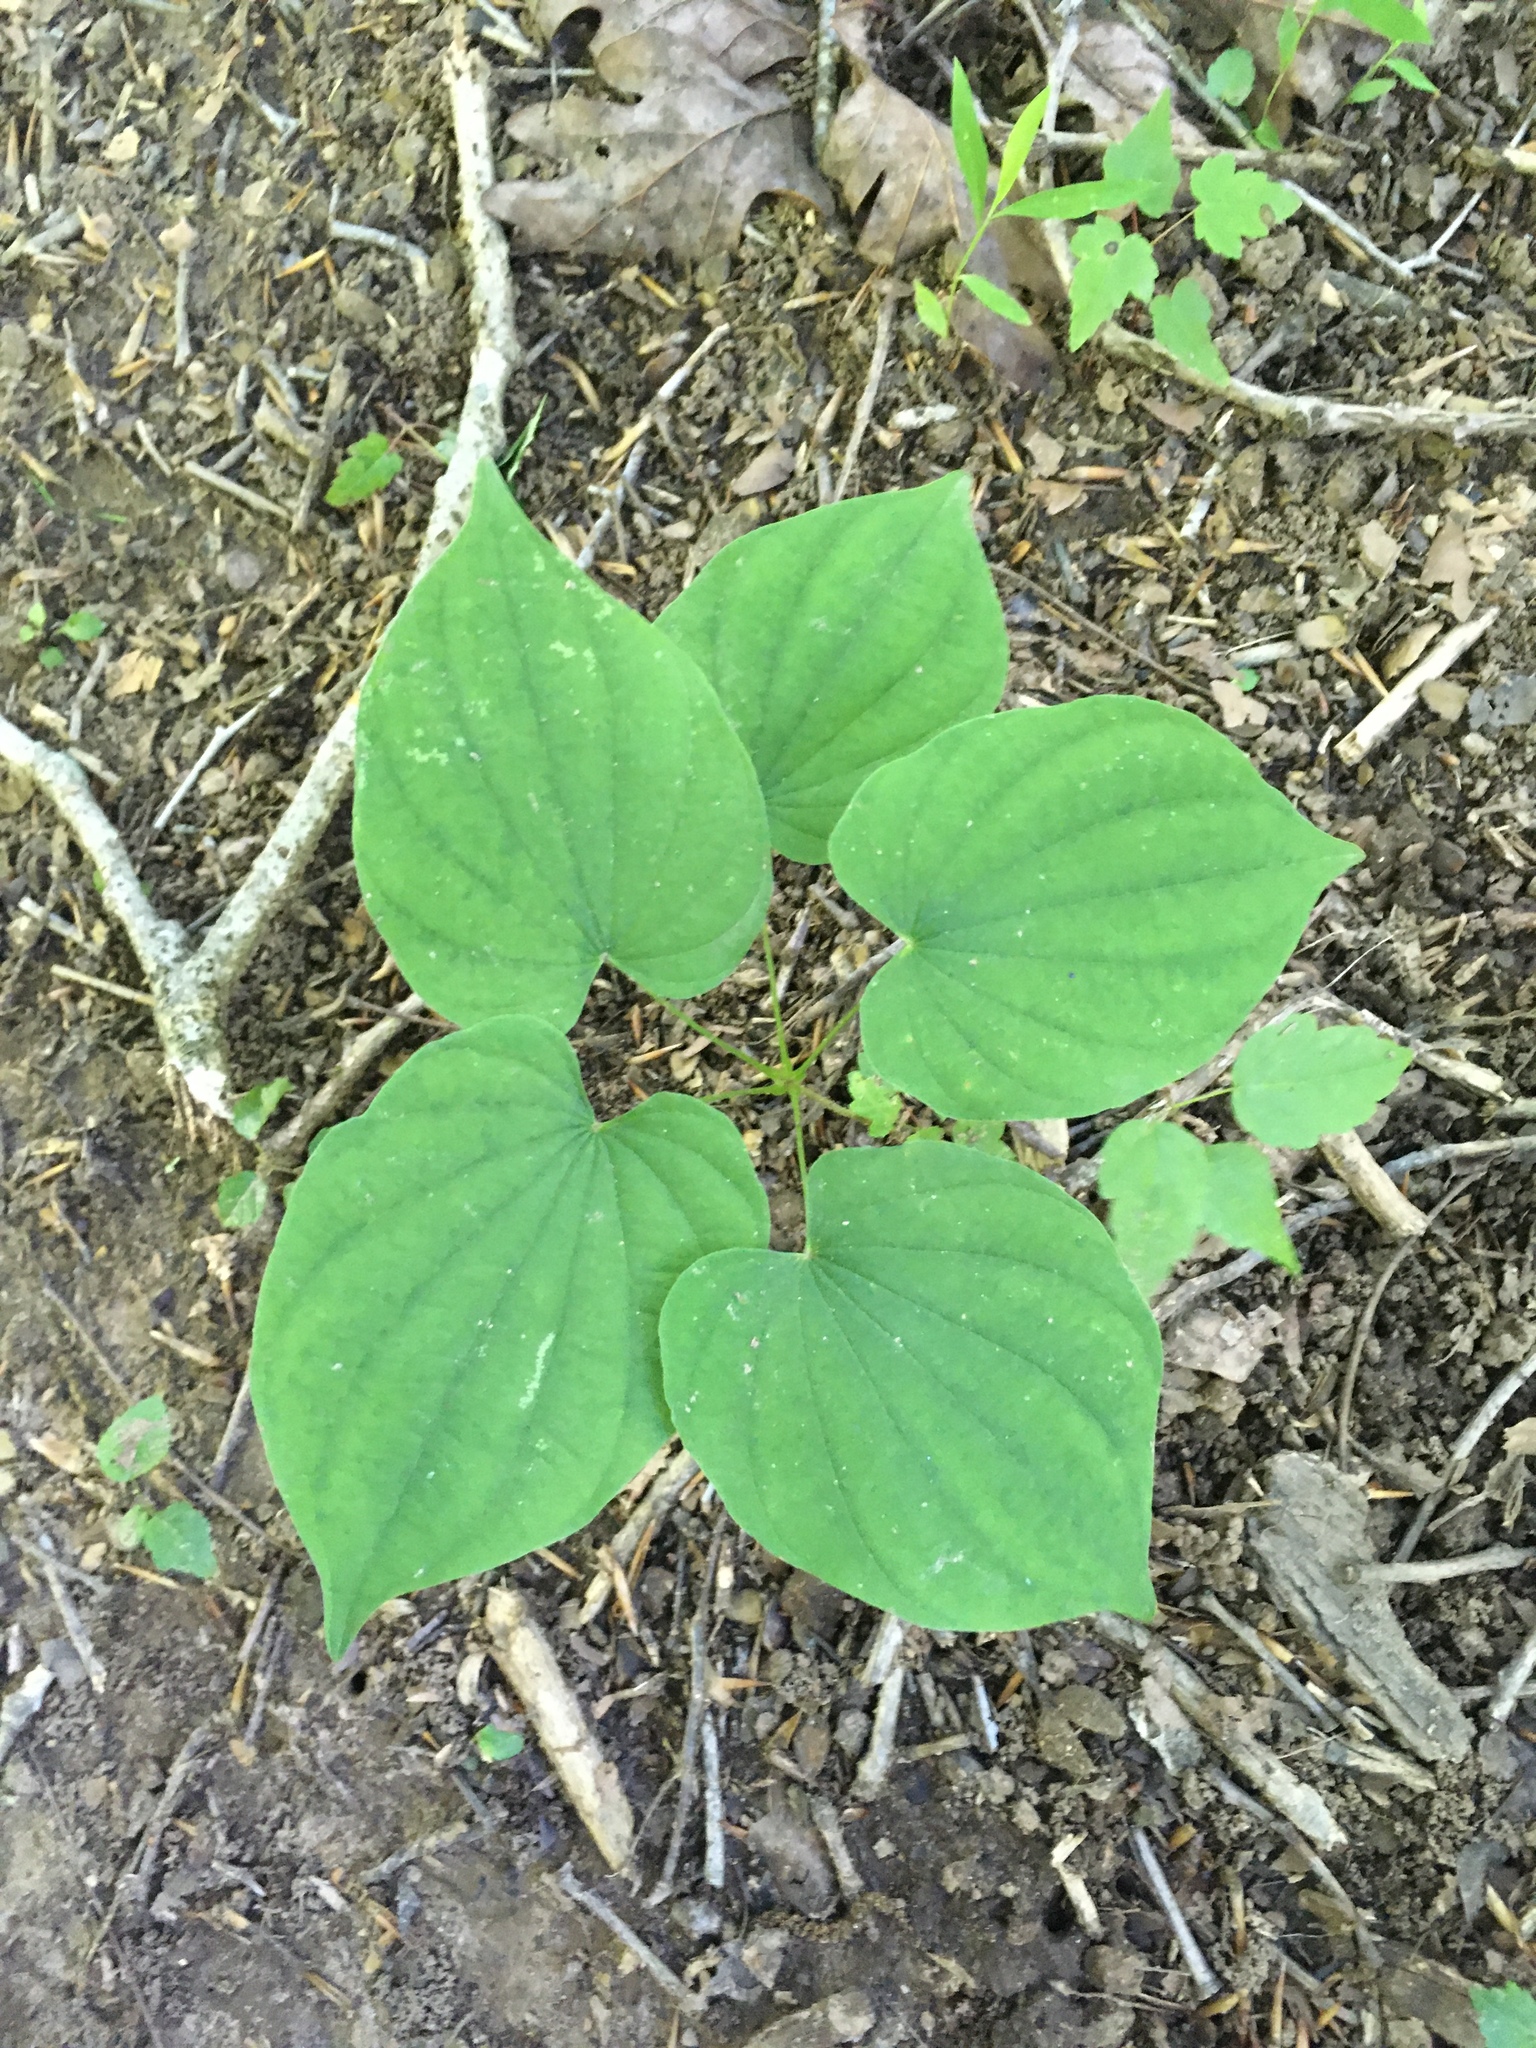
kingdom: Plantae
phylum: Tracheophyta
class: Liliopsida
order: Dioscoreales
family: Dioscoreaceae
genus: Dioscorea
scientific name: Dioscorea villosa
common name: Wild yam
